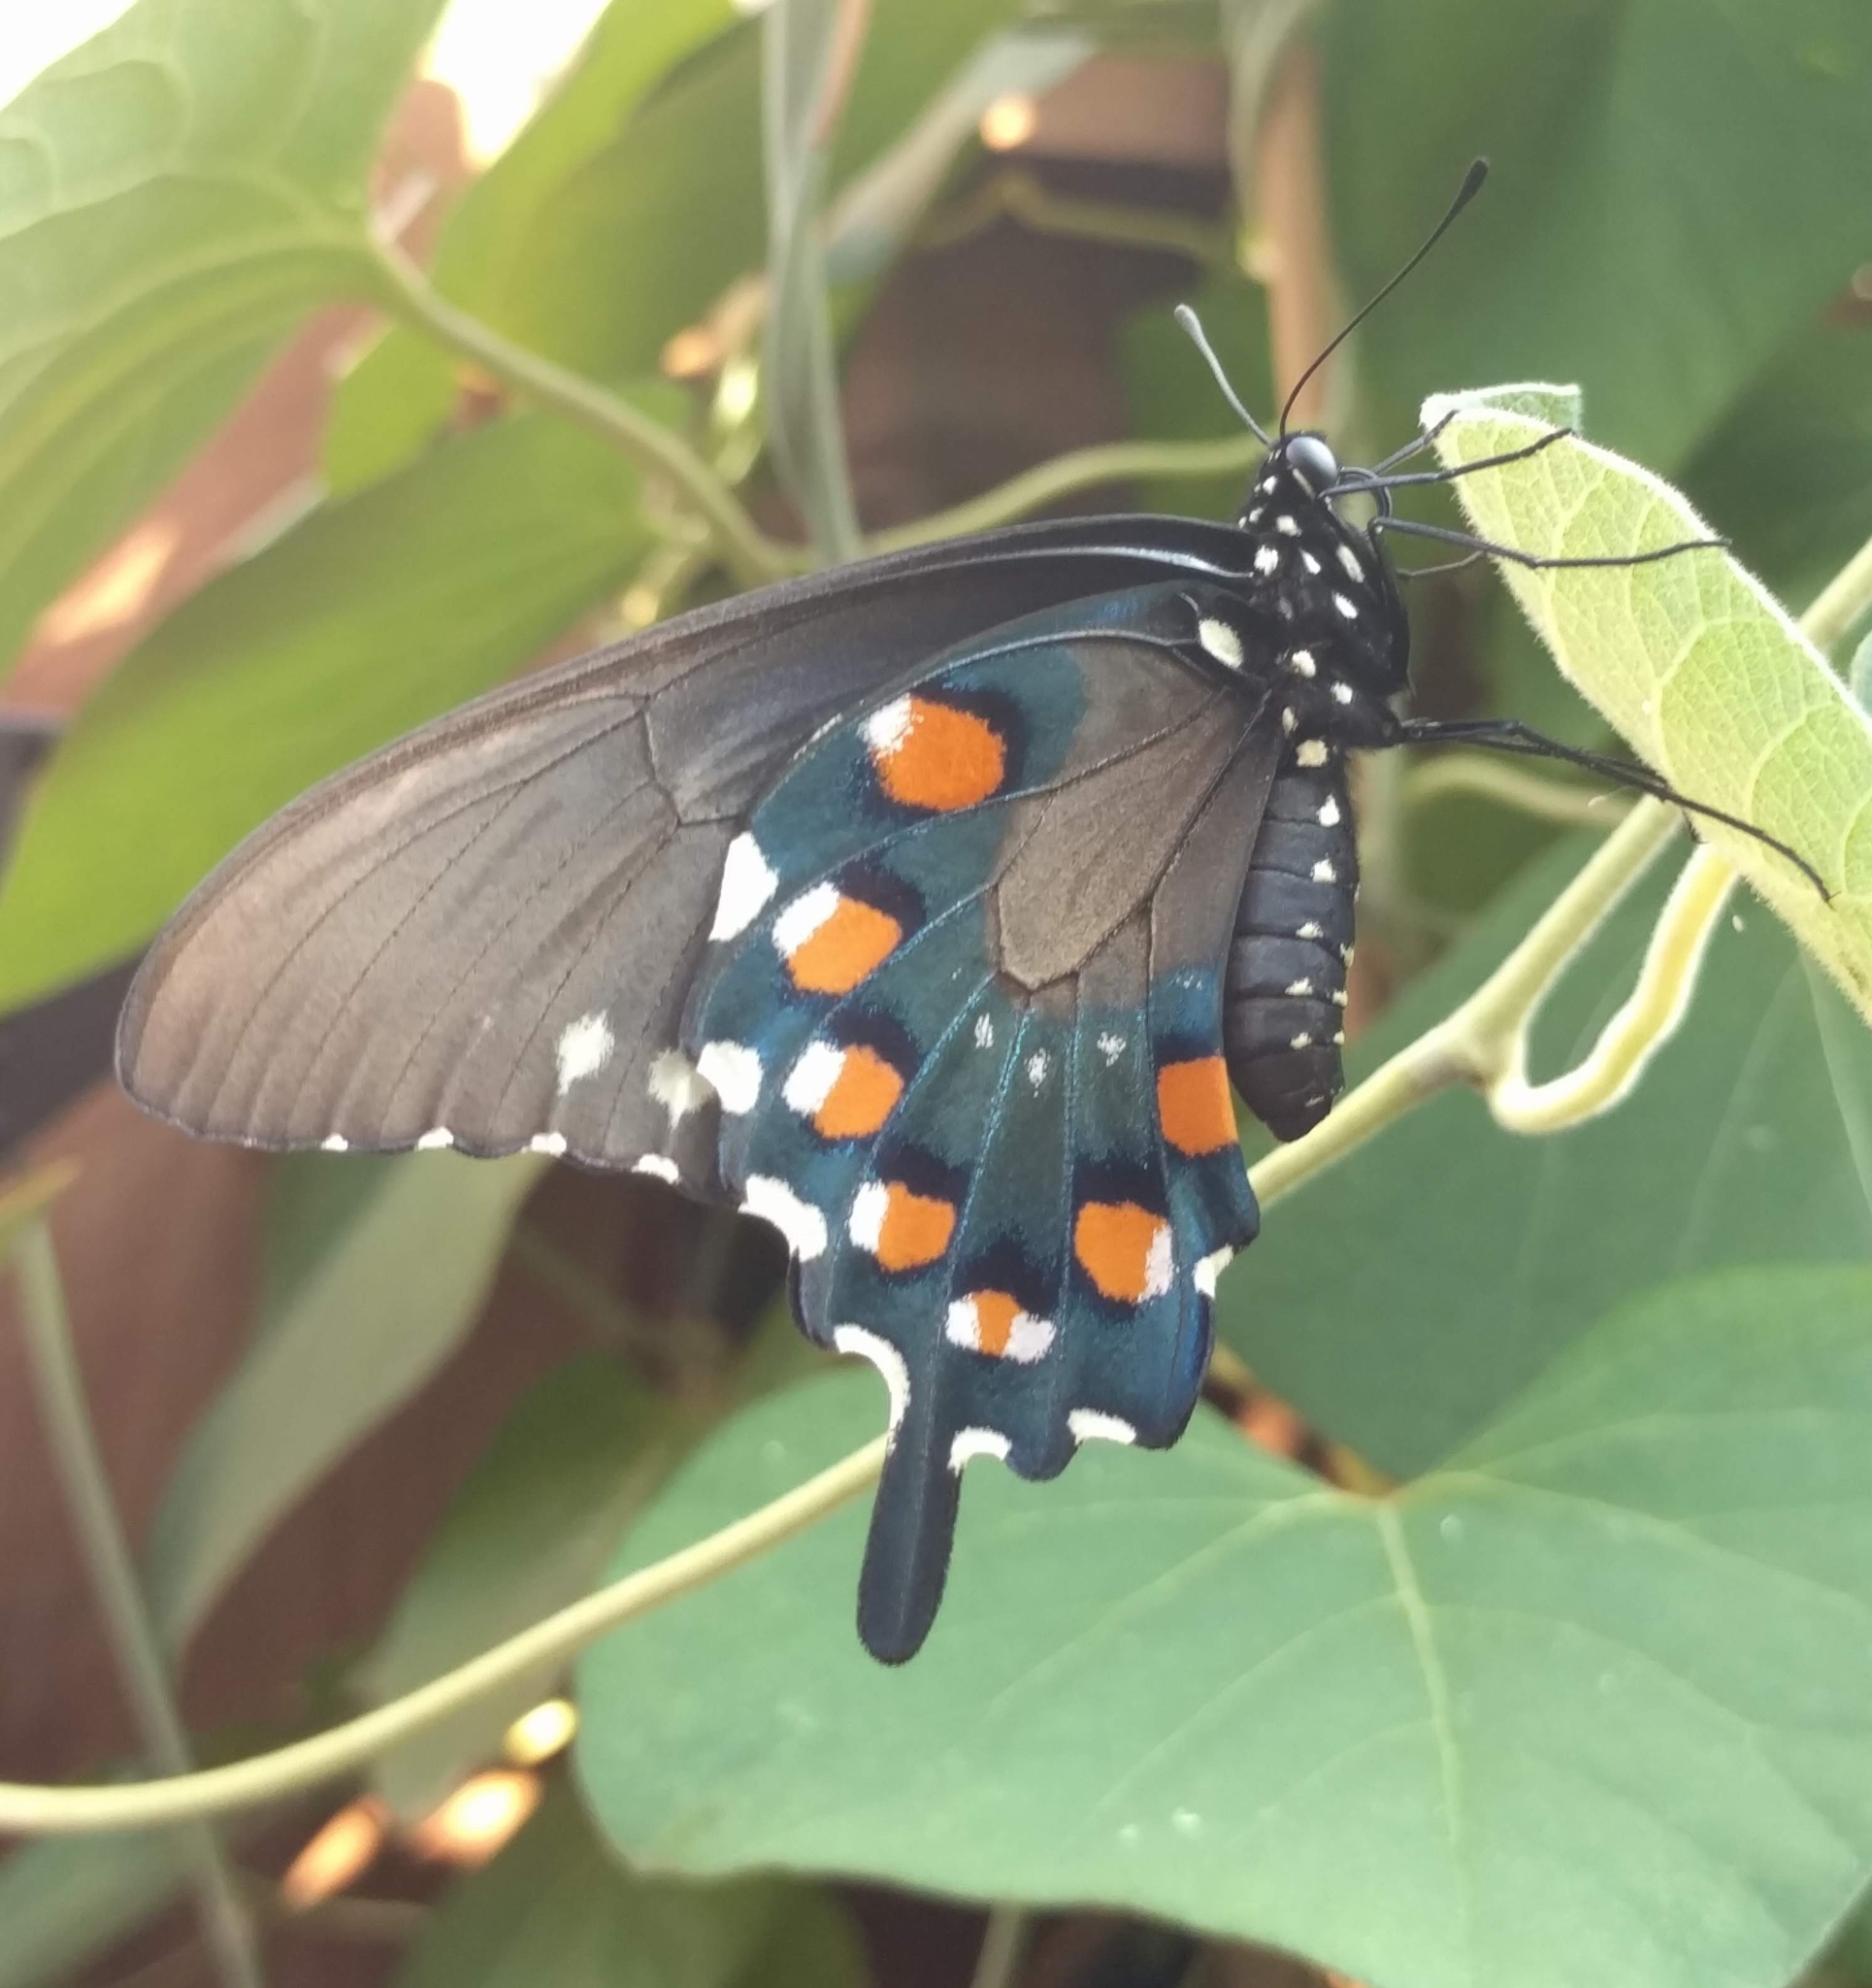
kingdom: Animalia
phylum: Arthropoda
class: Insecta
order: Lepidoptera
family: Papilionidae
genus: Battus
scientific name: Battus philenor
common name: Pipevine swallowtail
